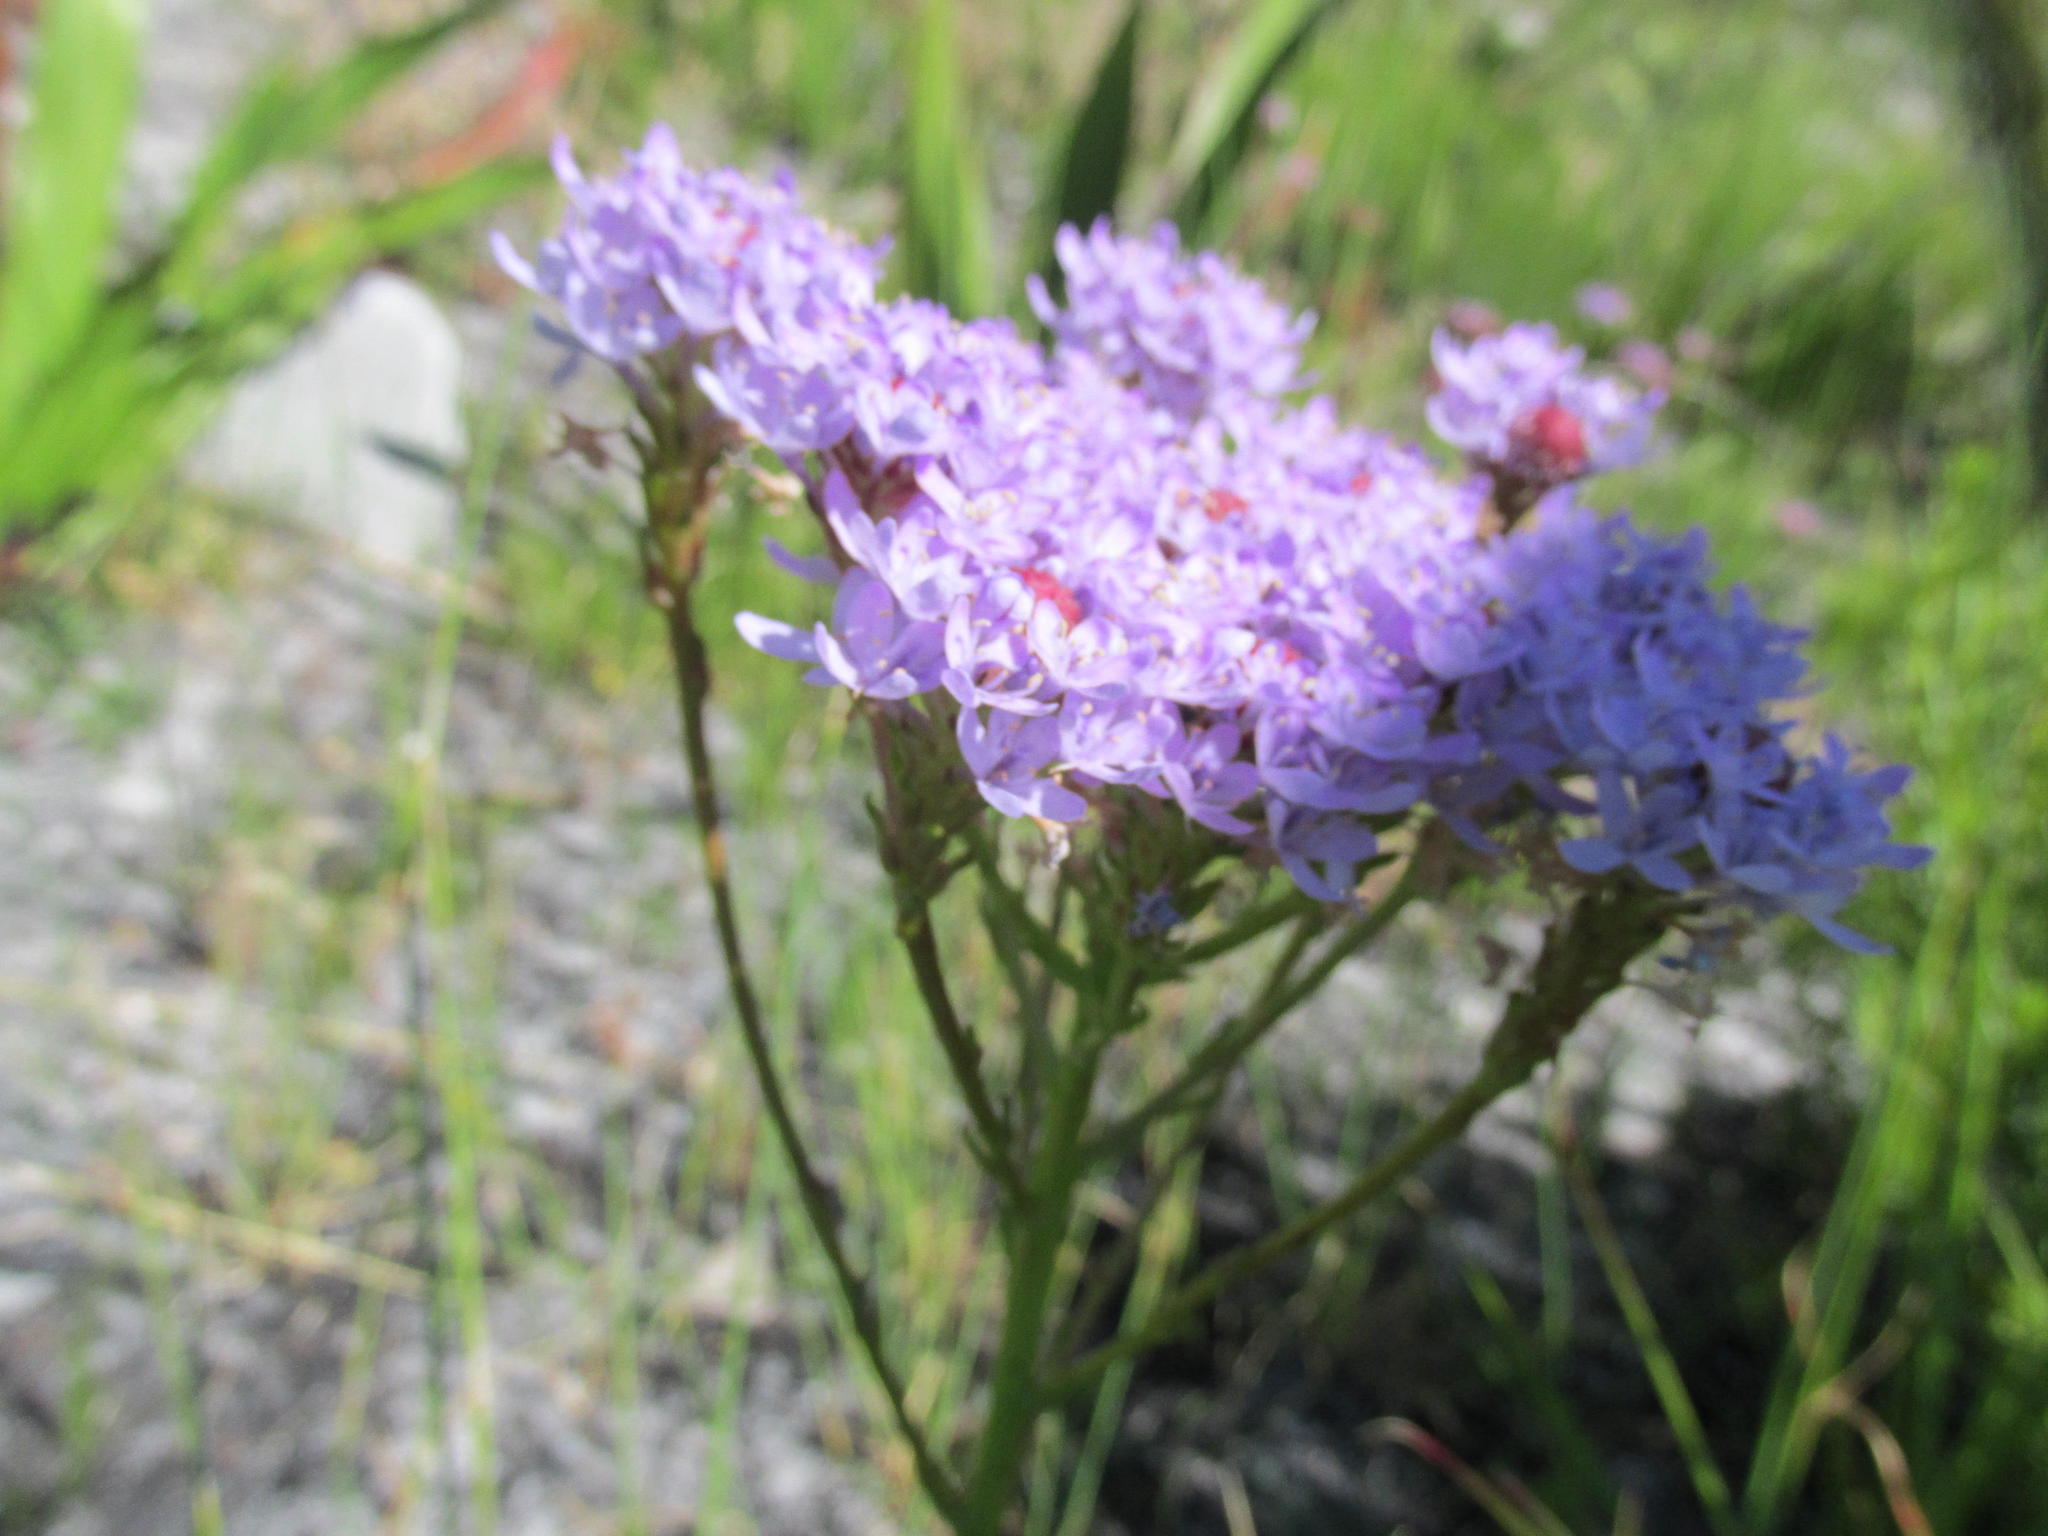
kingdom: Plantae
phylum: Tracheophyta
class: Magnoliopsida
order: Lamiales
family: Scrophulariaceae
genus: Pseudoselago
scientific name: Pseudoselago spuria
